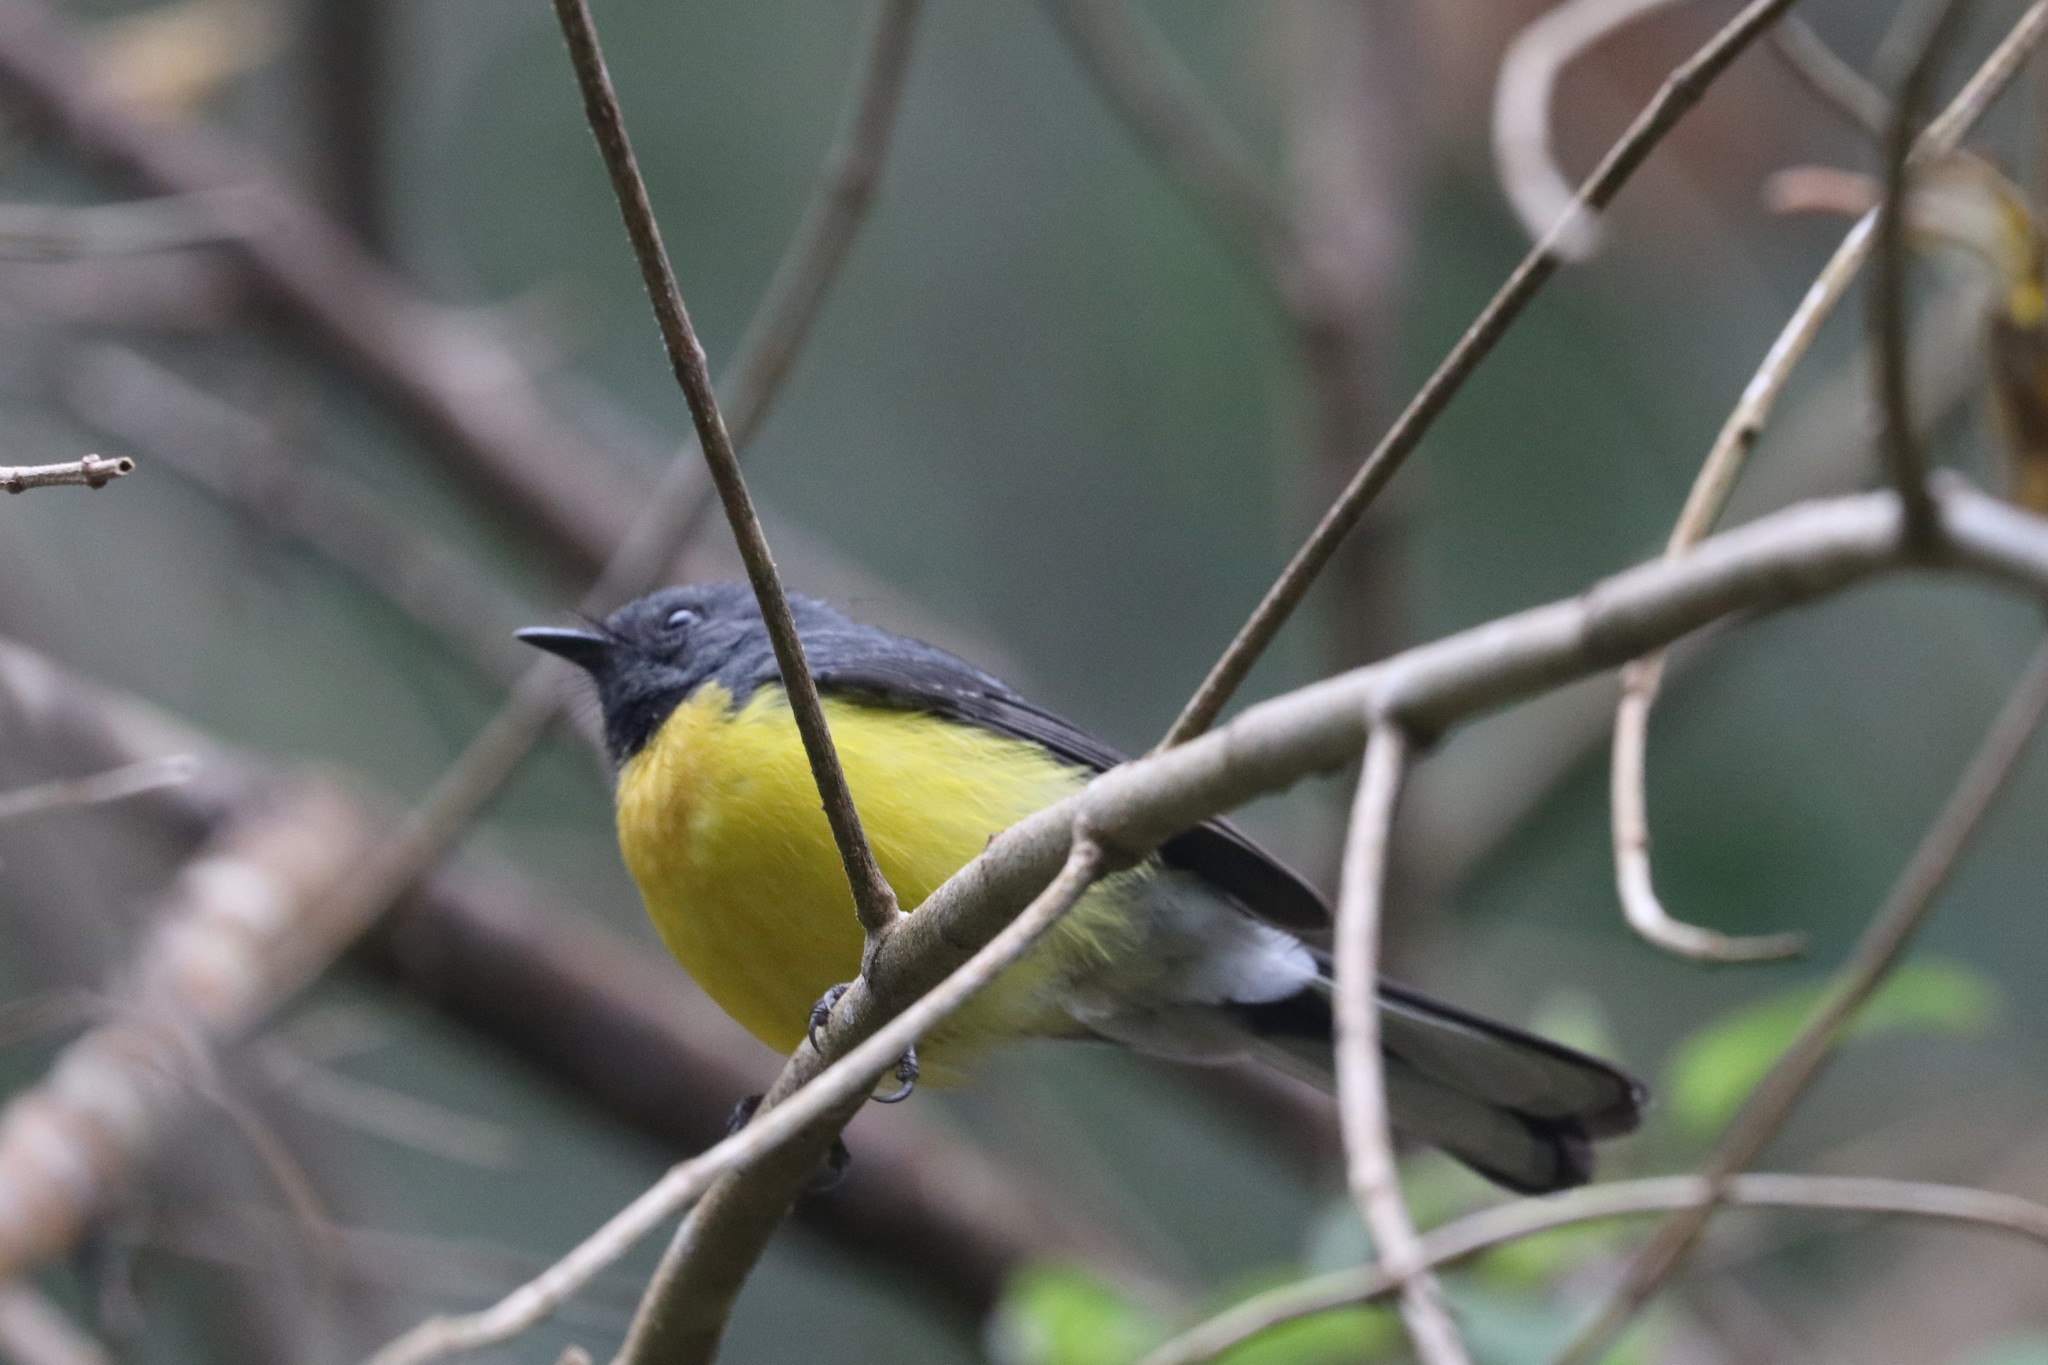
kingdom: Animalia
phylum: Chordata
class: Aves
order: Passeriformes
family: Parulidae
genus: Myioborus
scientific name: Myioborus miniatus
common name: Slate-throated redstart
